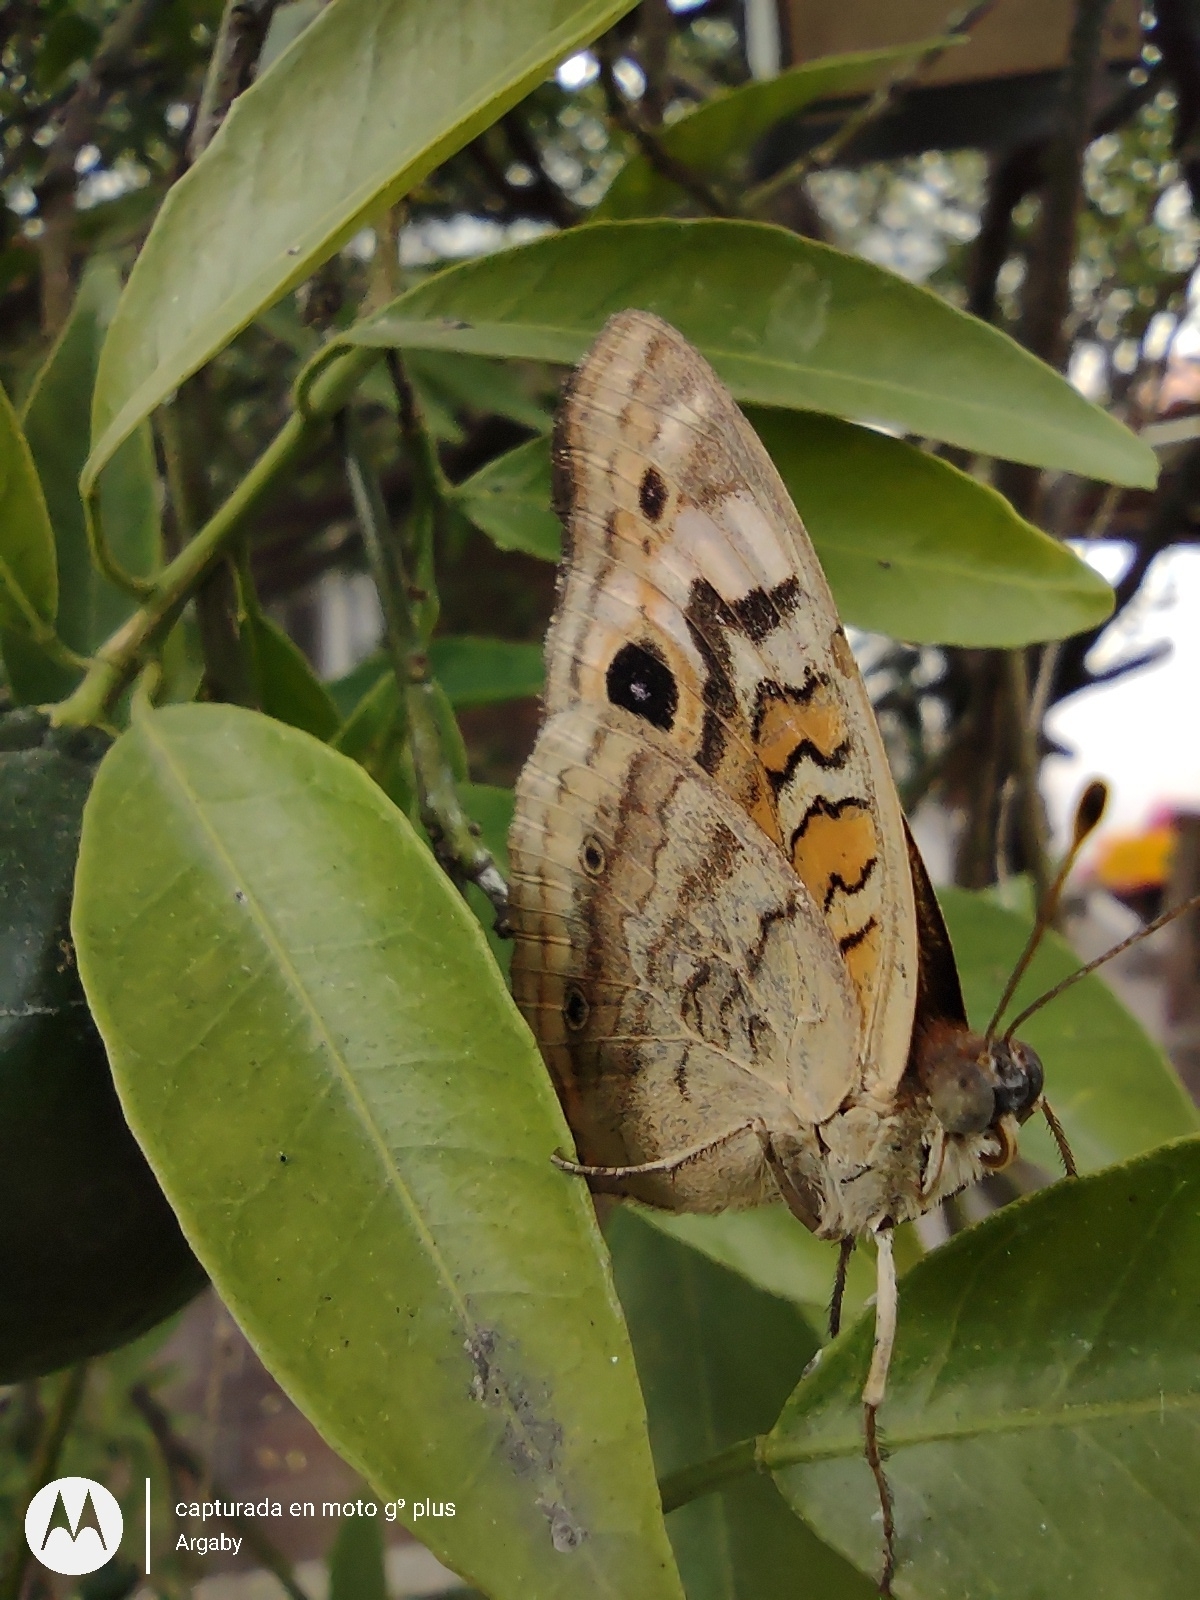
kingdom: Animalia
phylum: Arthropoda
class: Insecta
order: Lepidoptera
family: Nymphalidae
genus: Junonia
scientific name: Junonia lavinia
